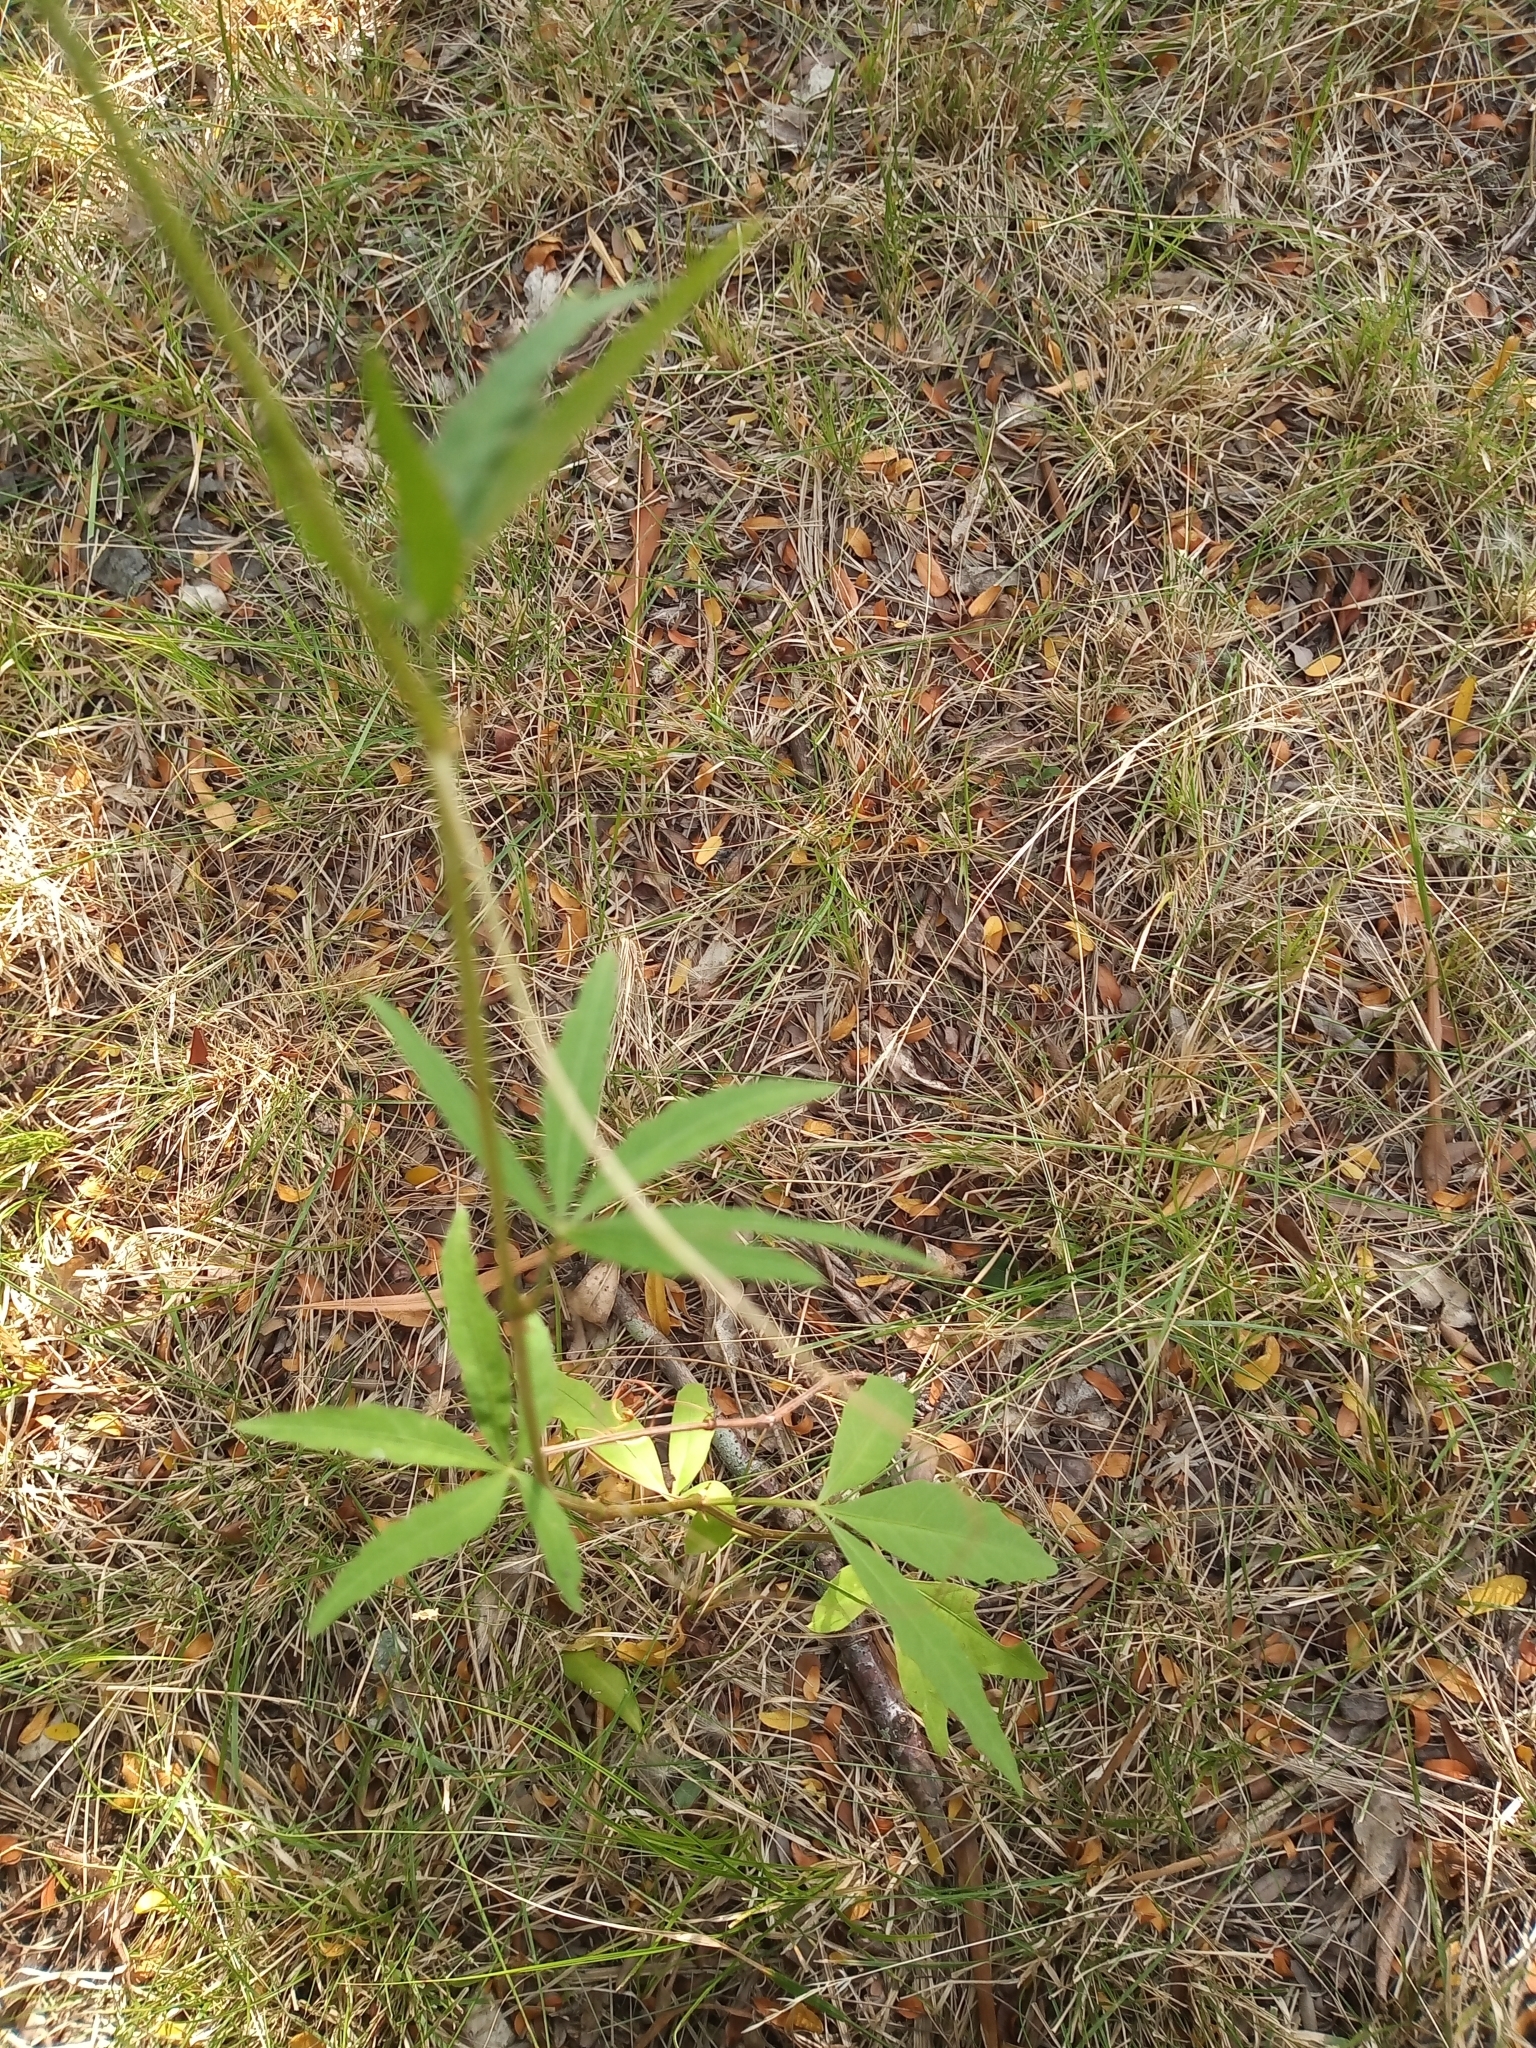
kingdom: Plantae
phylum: Tracheophyta
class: Magnoliopsida
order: Vitales
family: Vitaceae
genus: Cissus
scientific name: Cissus palmata
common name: Grape
